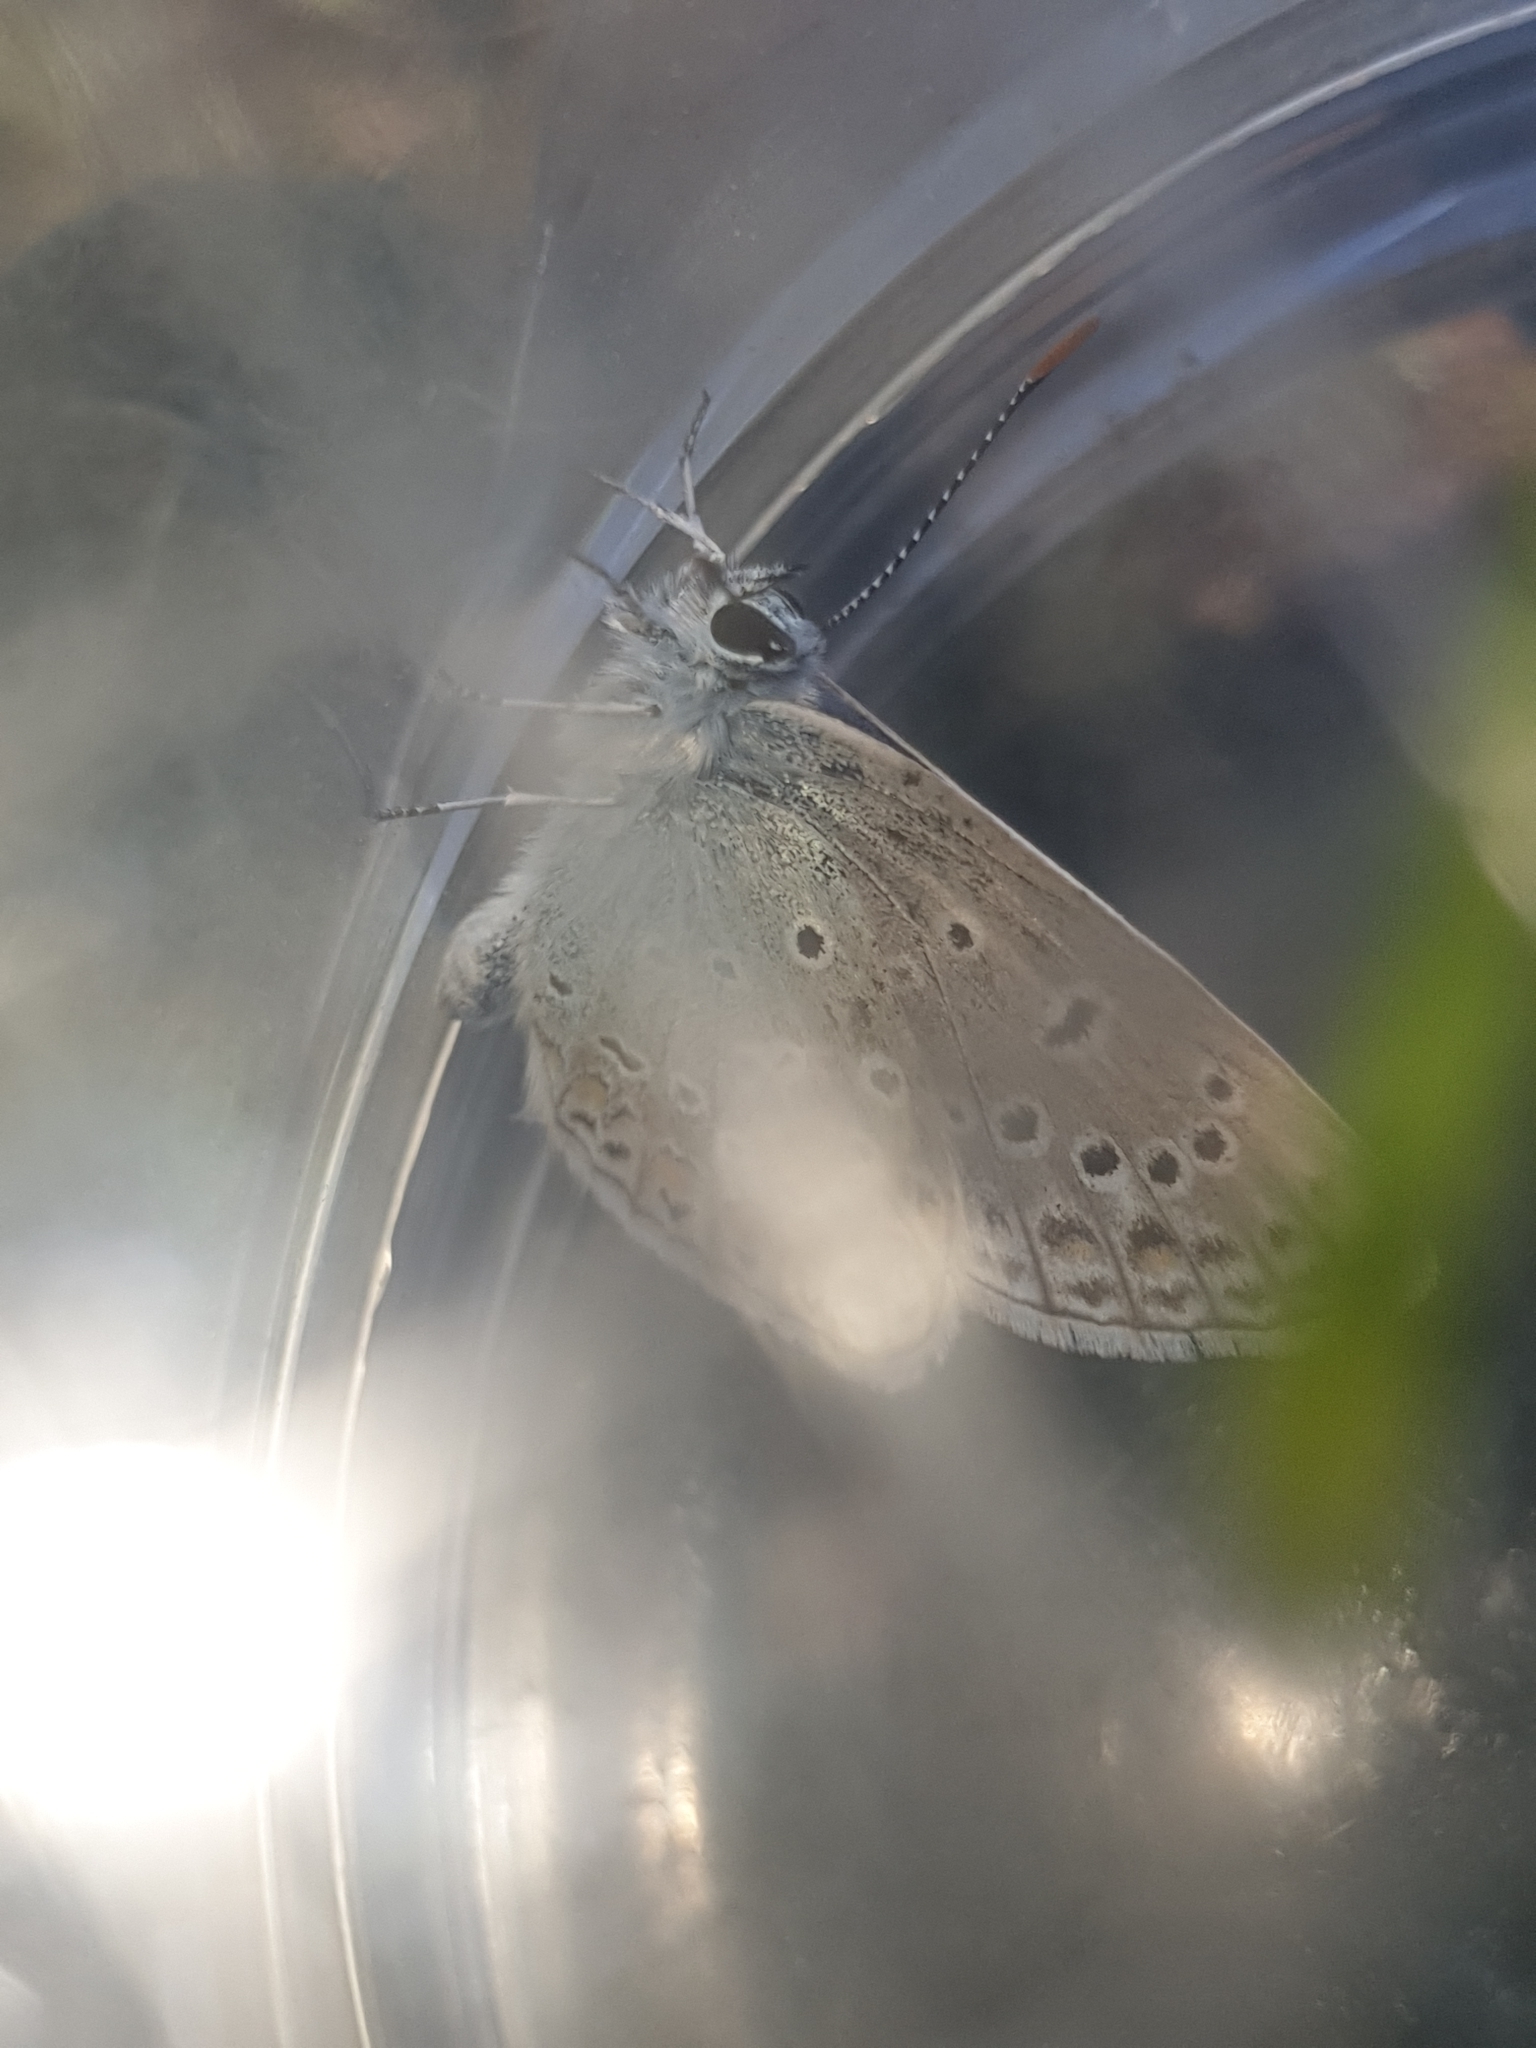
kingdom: Animalia
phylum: Arthropoda
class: Insecta
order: Lepidoptera
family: Lycaenidae
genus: Polyommatus
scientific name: Polyommatus icarus
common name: Common blue
